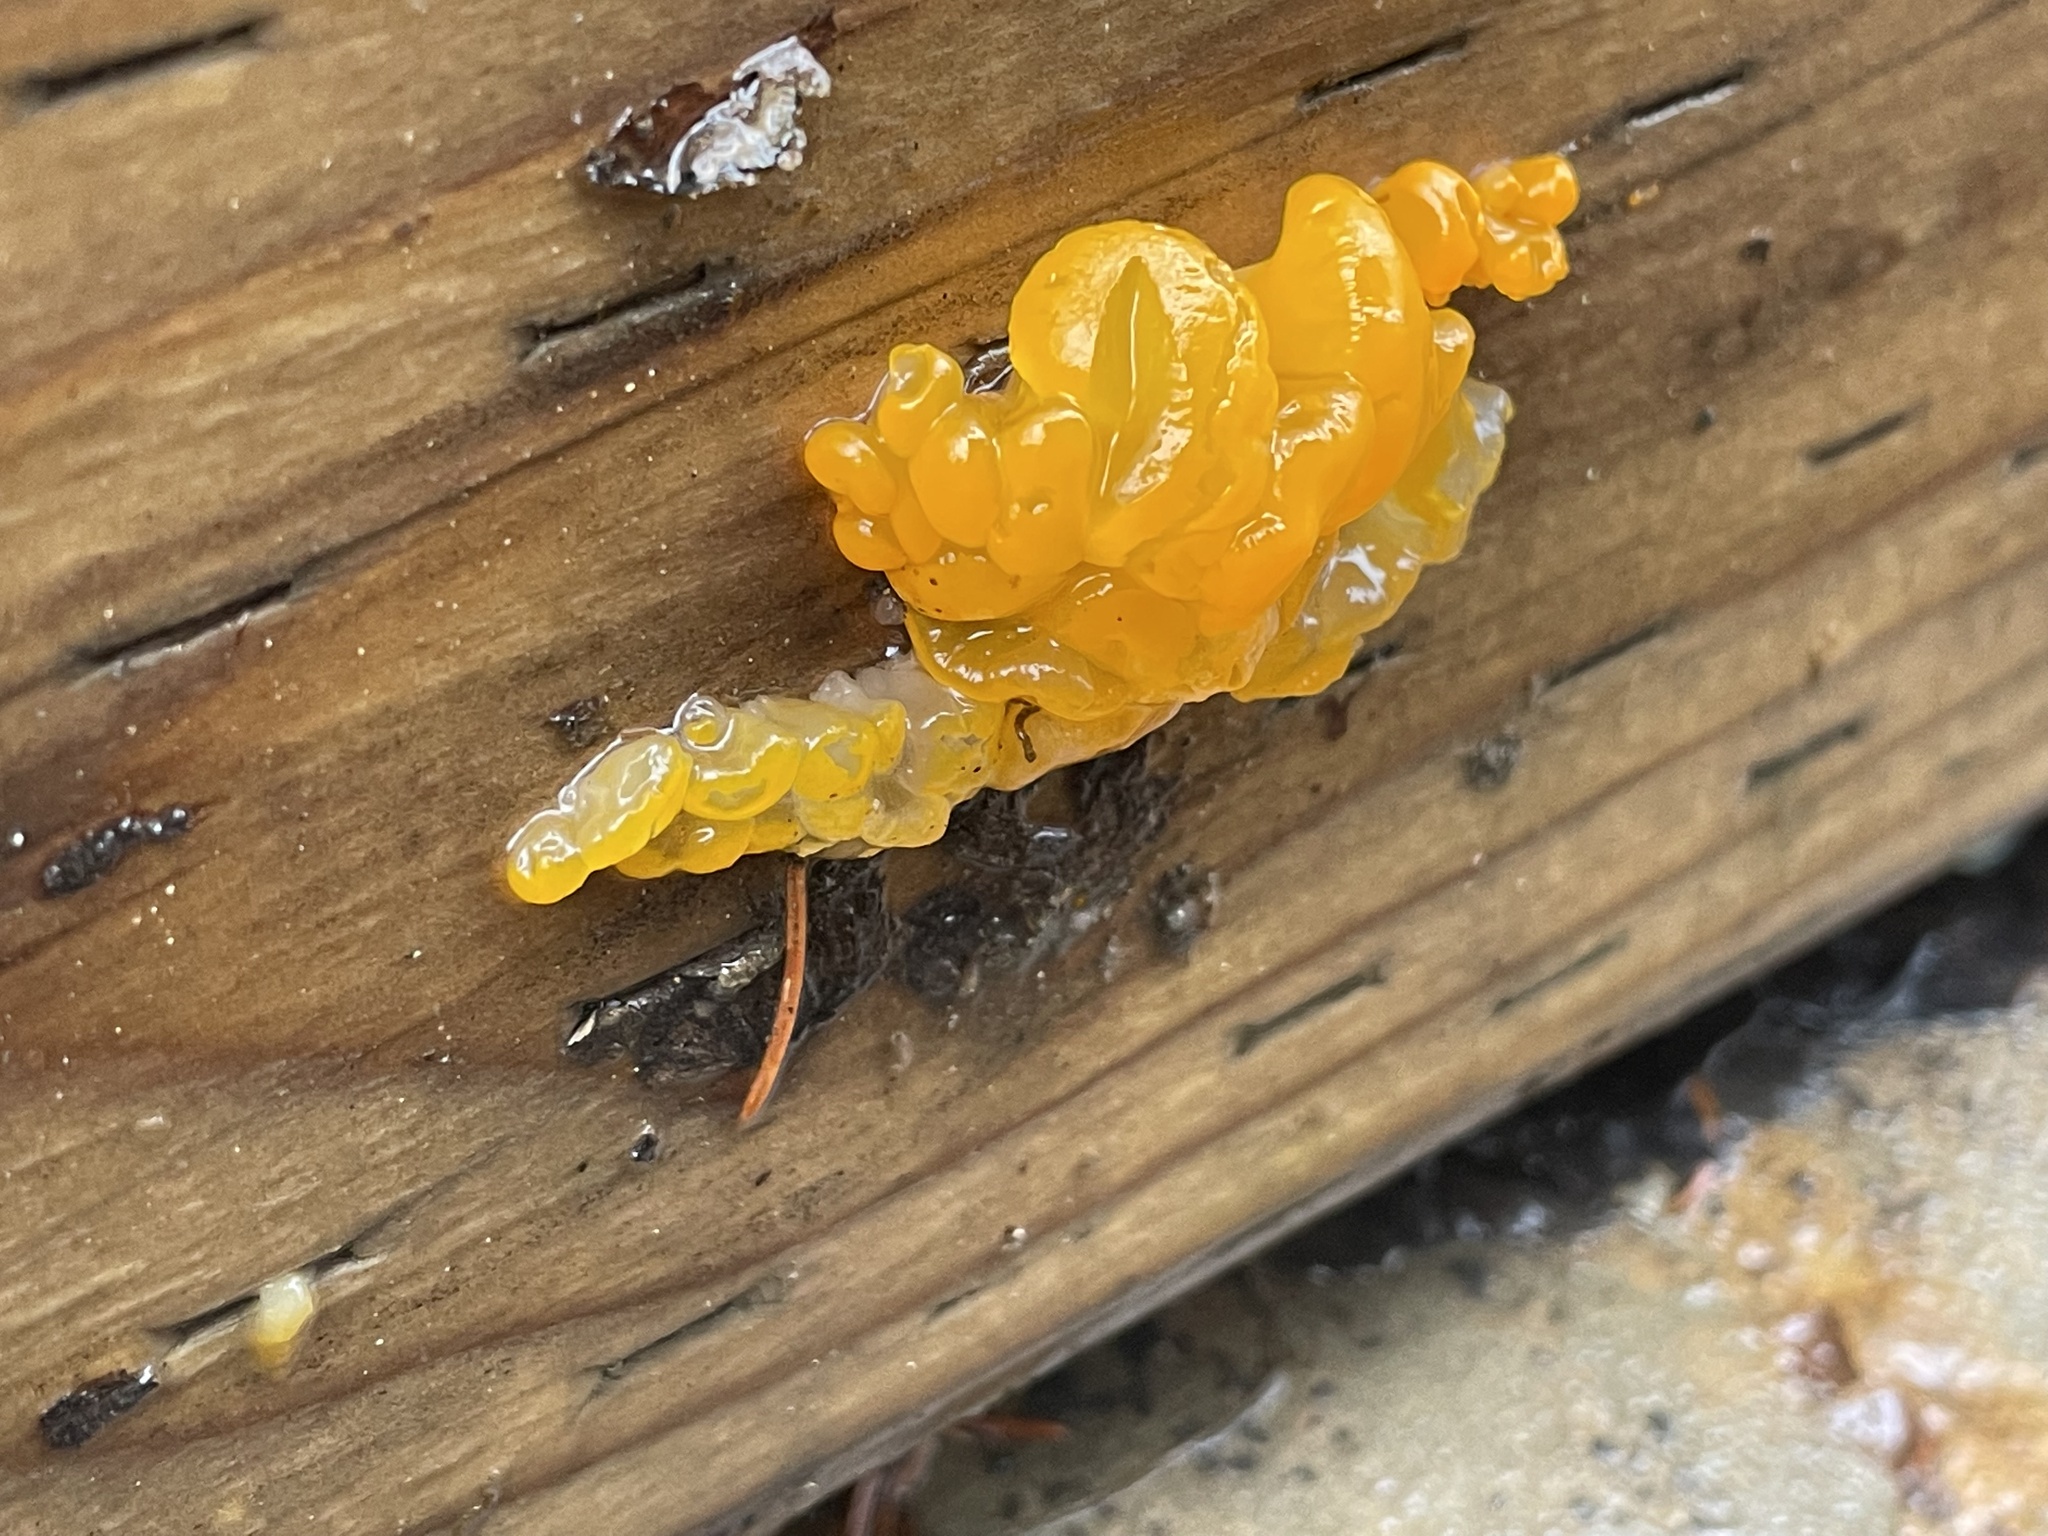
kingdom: Fungi
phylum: Basidiomycota
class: Dacrymycetes
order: Dacrymycetales
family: Dacrymycetaceae
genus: Dacrymyces
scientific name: Dacrymyces chrysospermus
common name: Orange jelly spot
